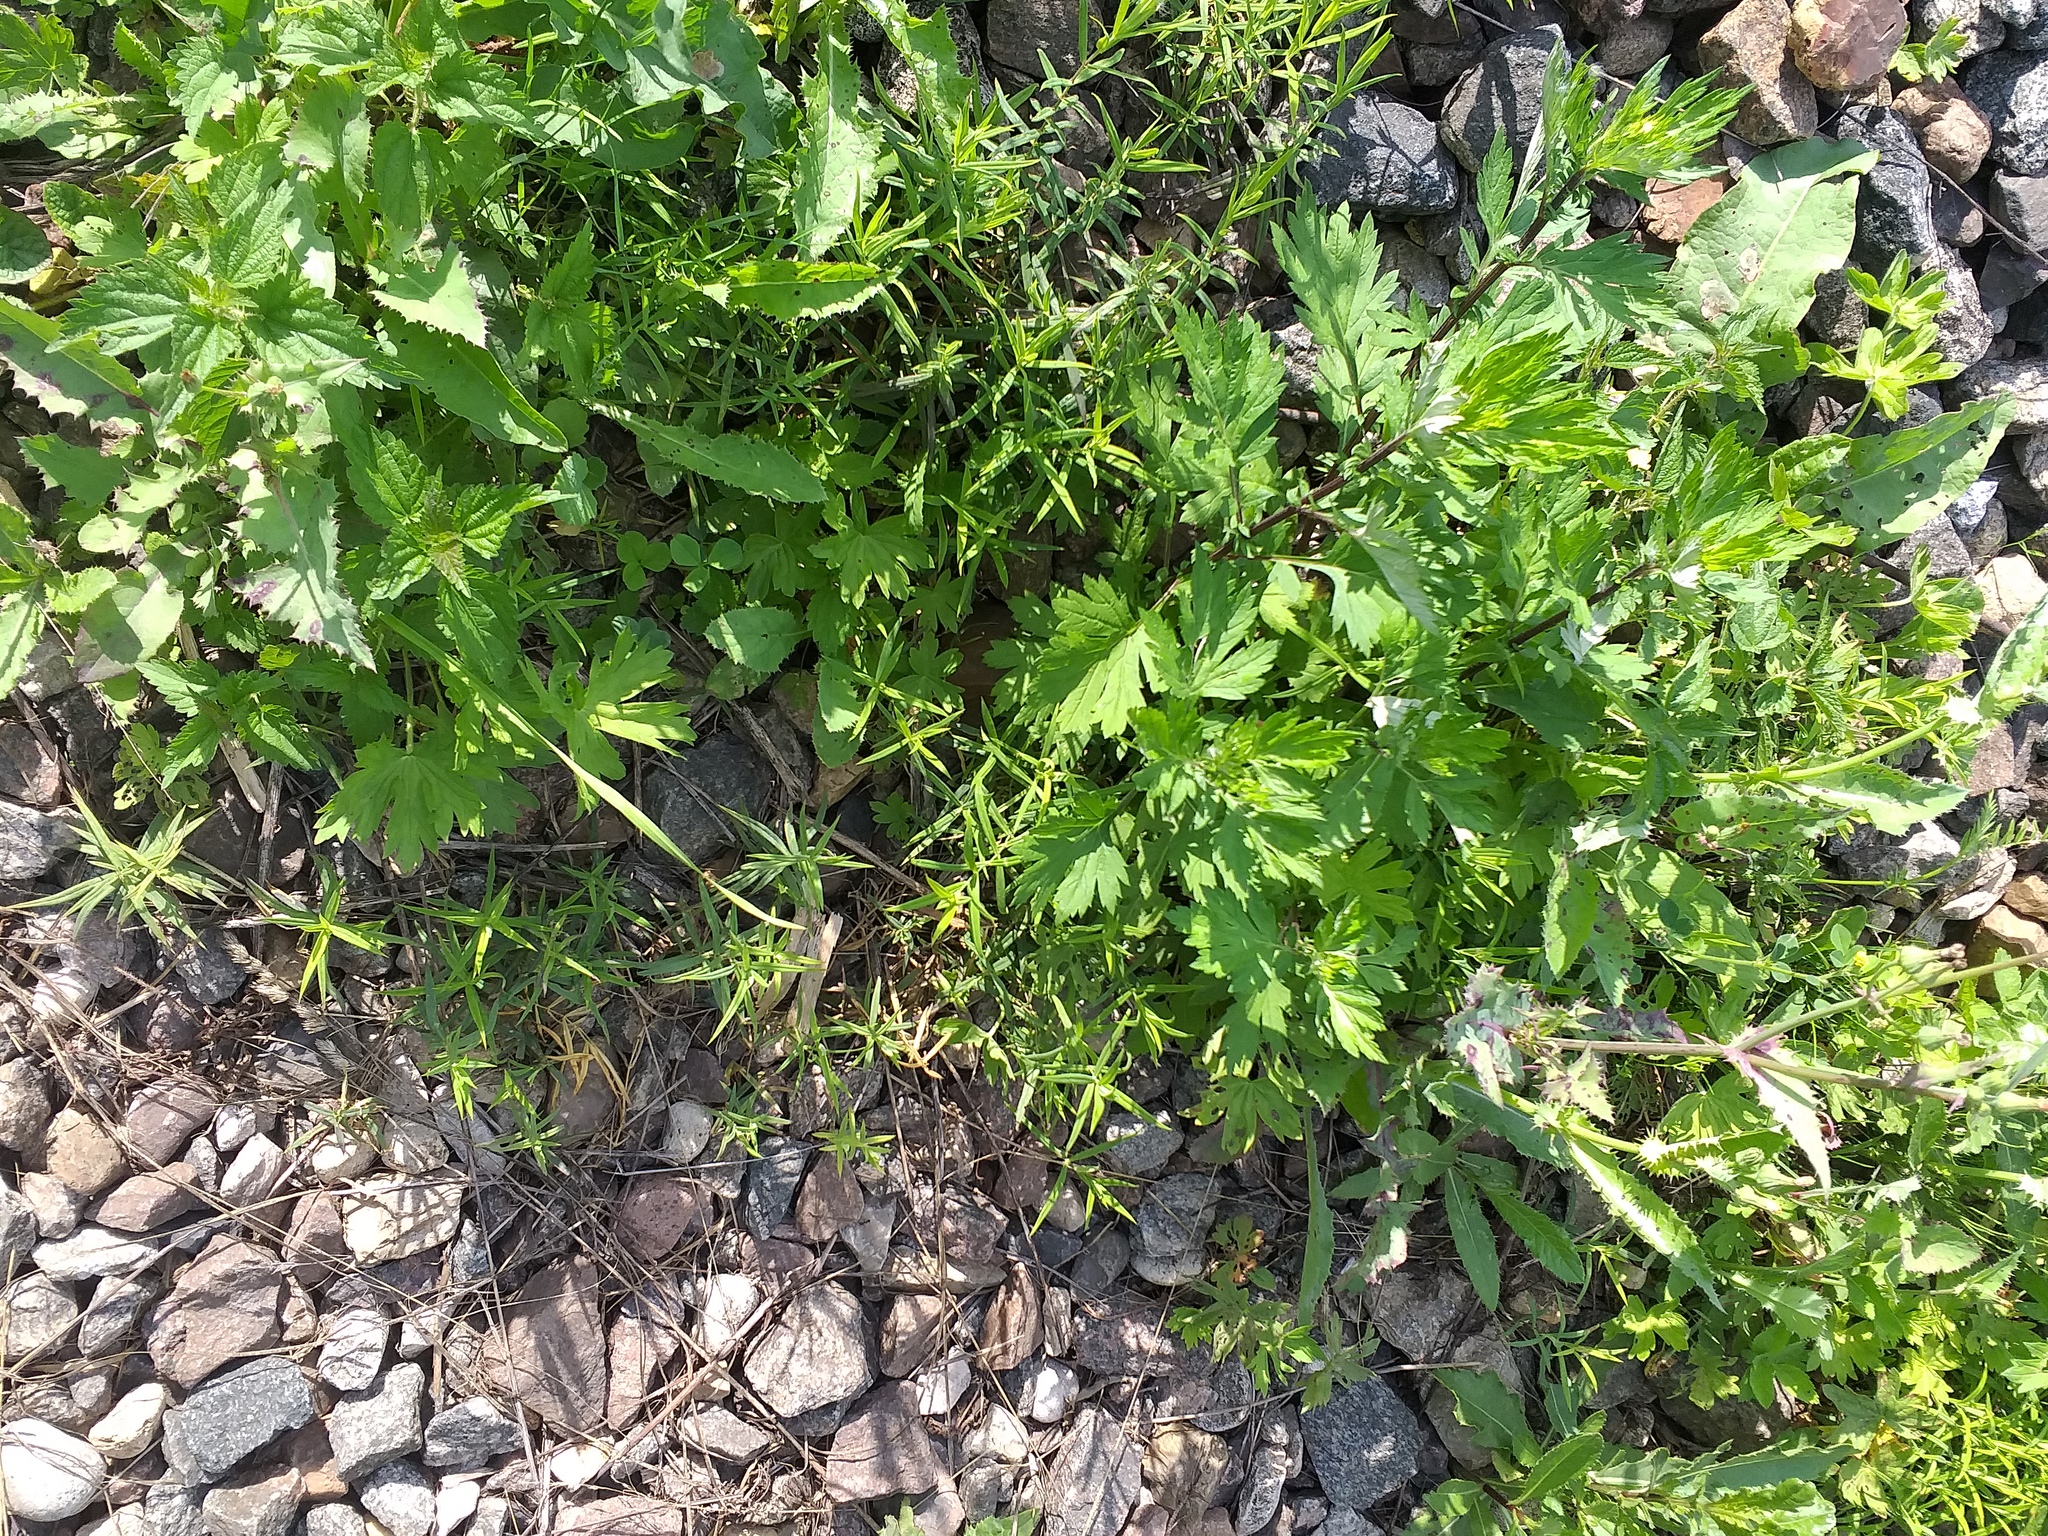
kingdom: Plantae
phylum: Tracheophyta
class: Magnoliopsida
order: Caryophyllales
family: Caryophyllaceae
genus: Rabelera
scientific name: Rabelera holostea
